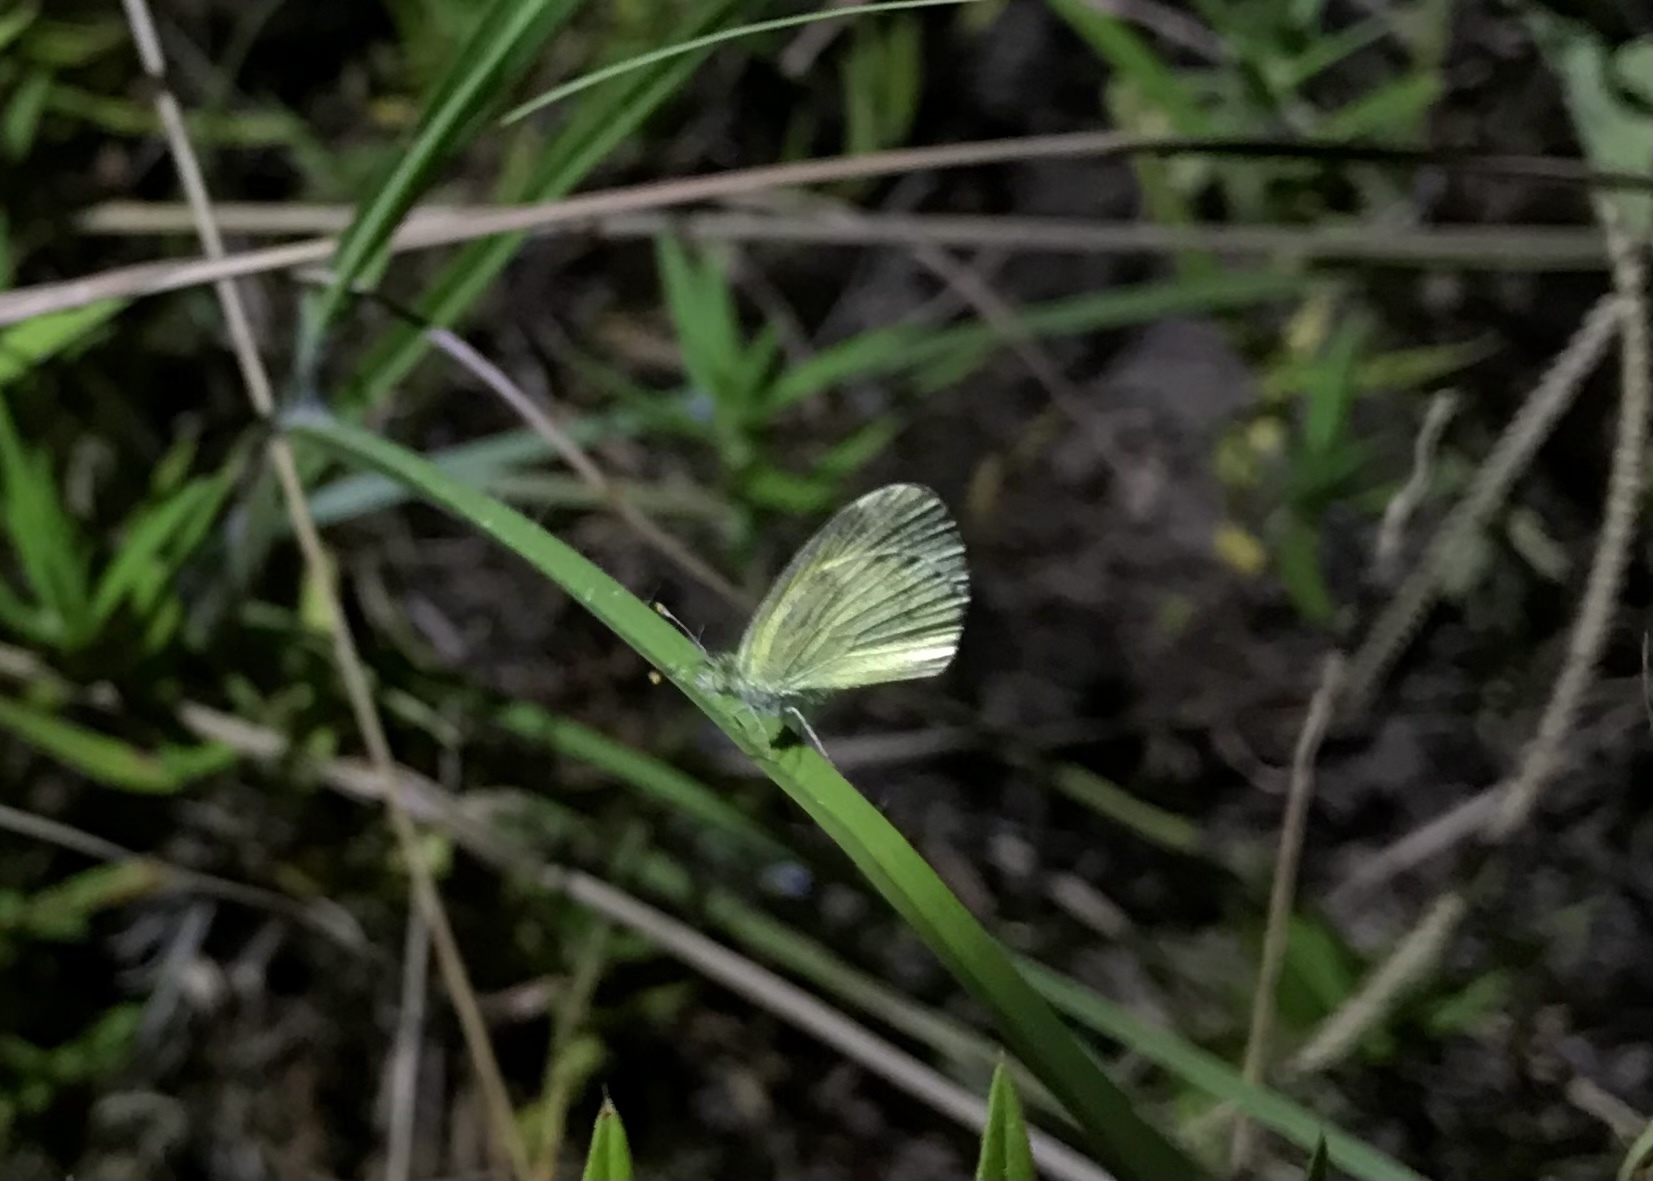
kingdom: Animalia
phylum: Arthropoda
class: Insecta
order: Lepidoptera
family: Pieridae
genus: Nathalis
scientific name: Nathalis iole
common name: Dainty sulphur
